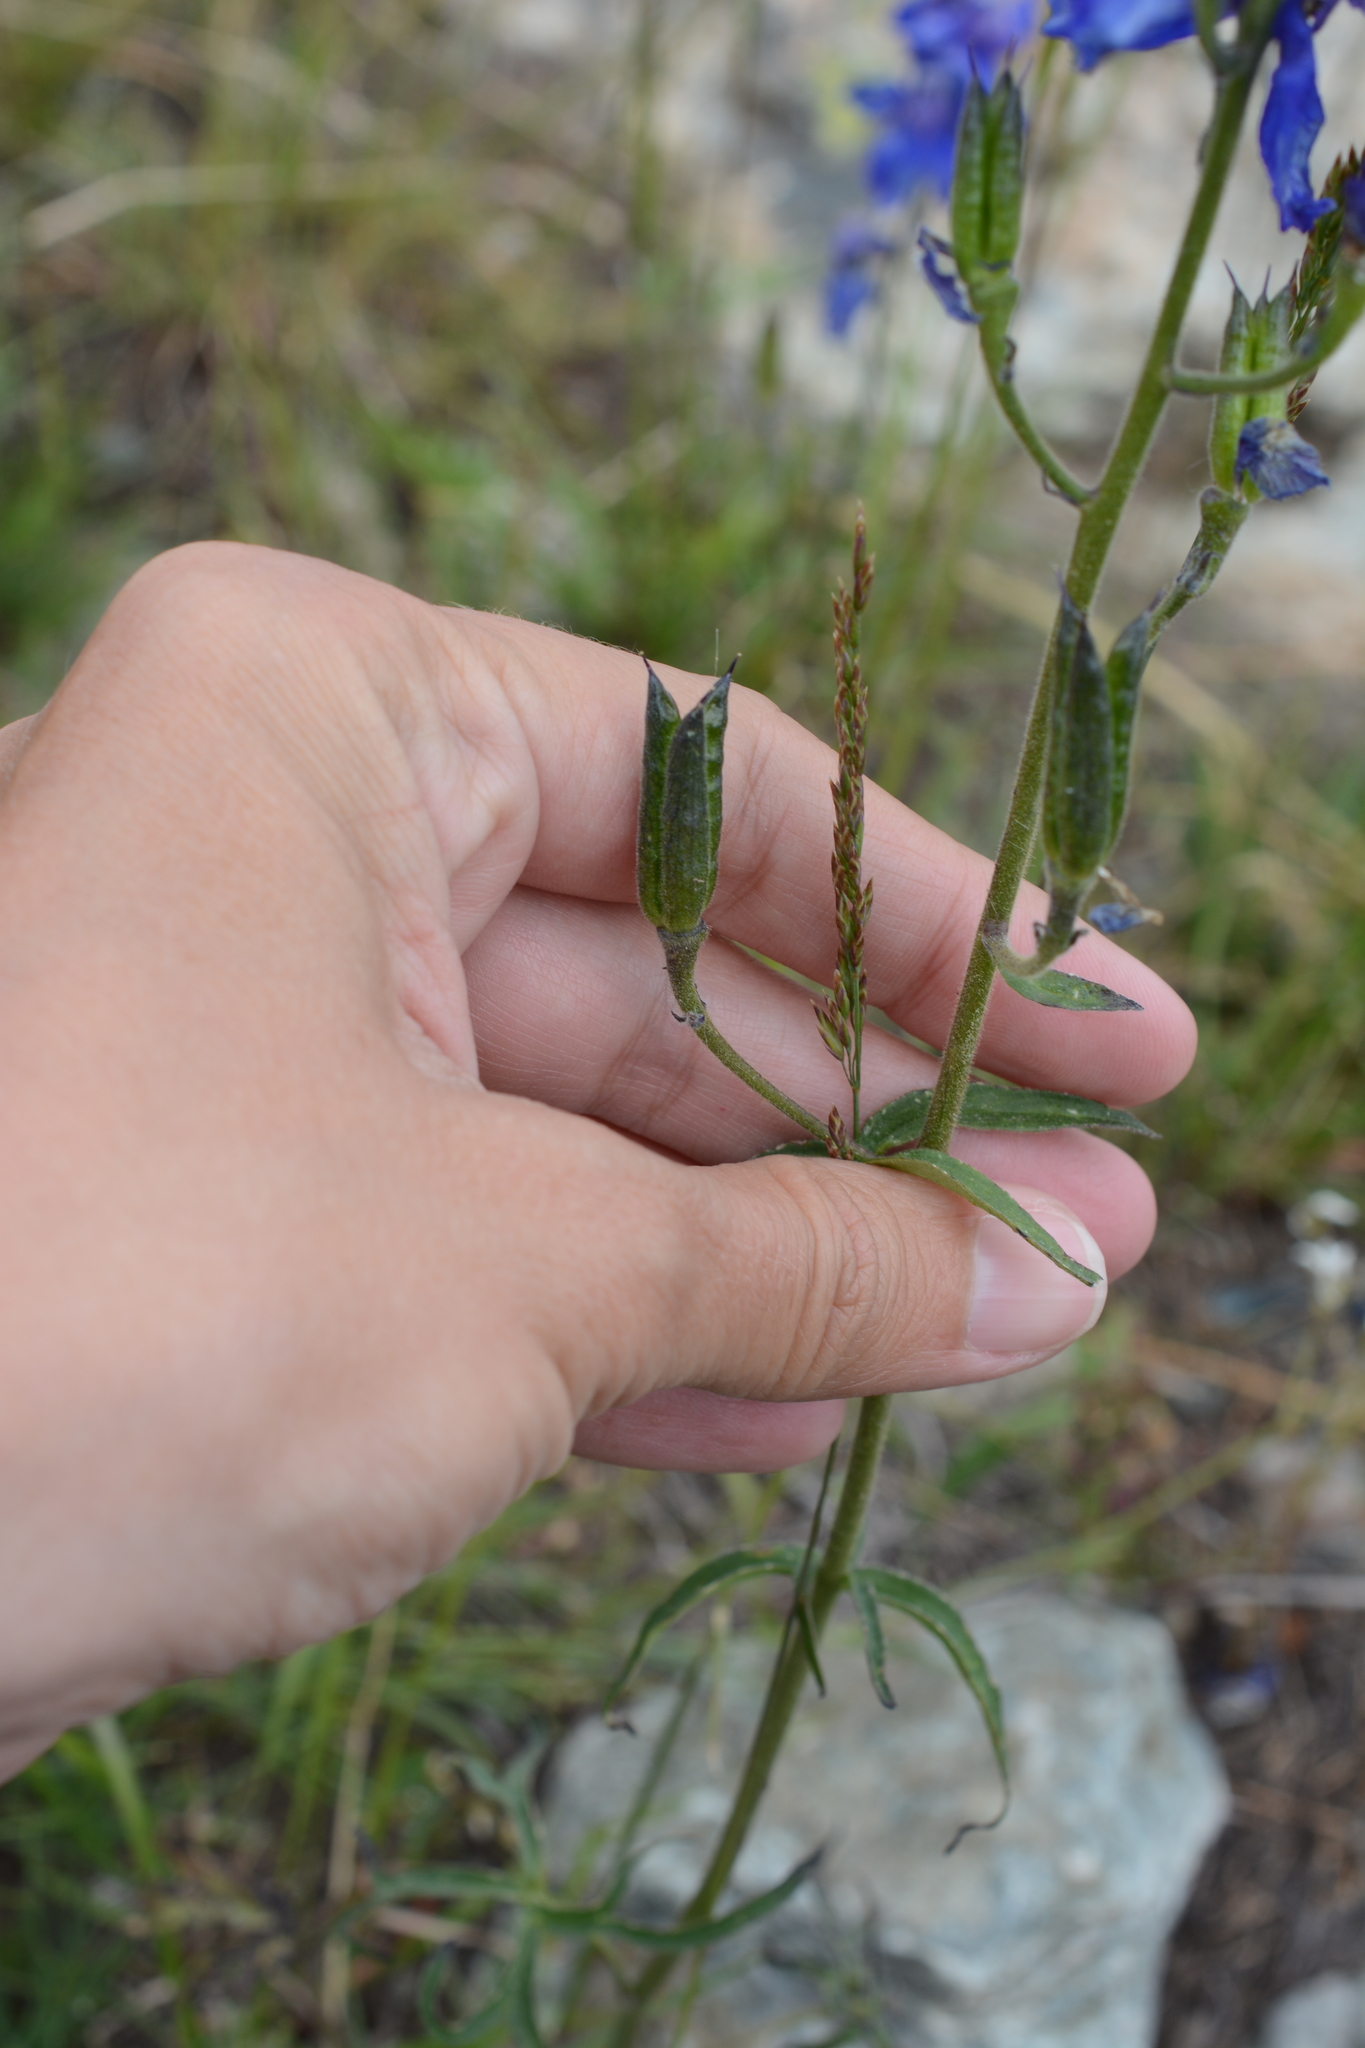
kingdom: Plantae
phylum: Tracheophyta
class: Magnoliopsida
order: Ranunculales
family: Ranunculaceae
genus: Delphinium
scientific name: Delphinium nuttallianum
